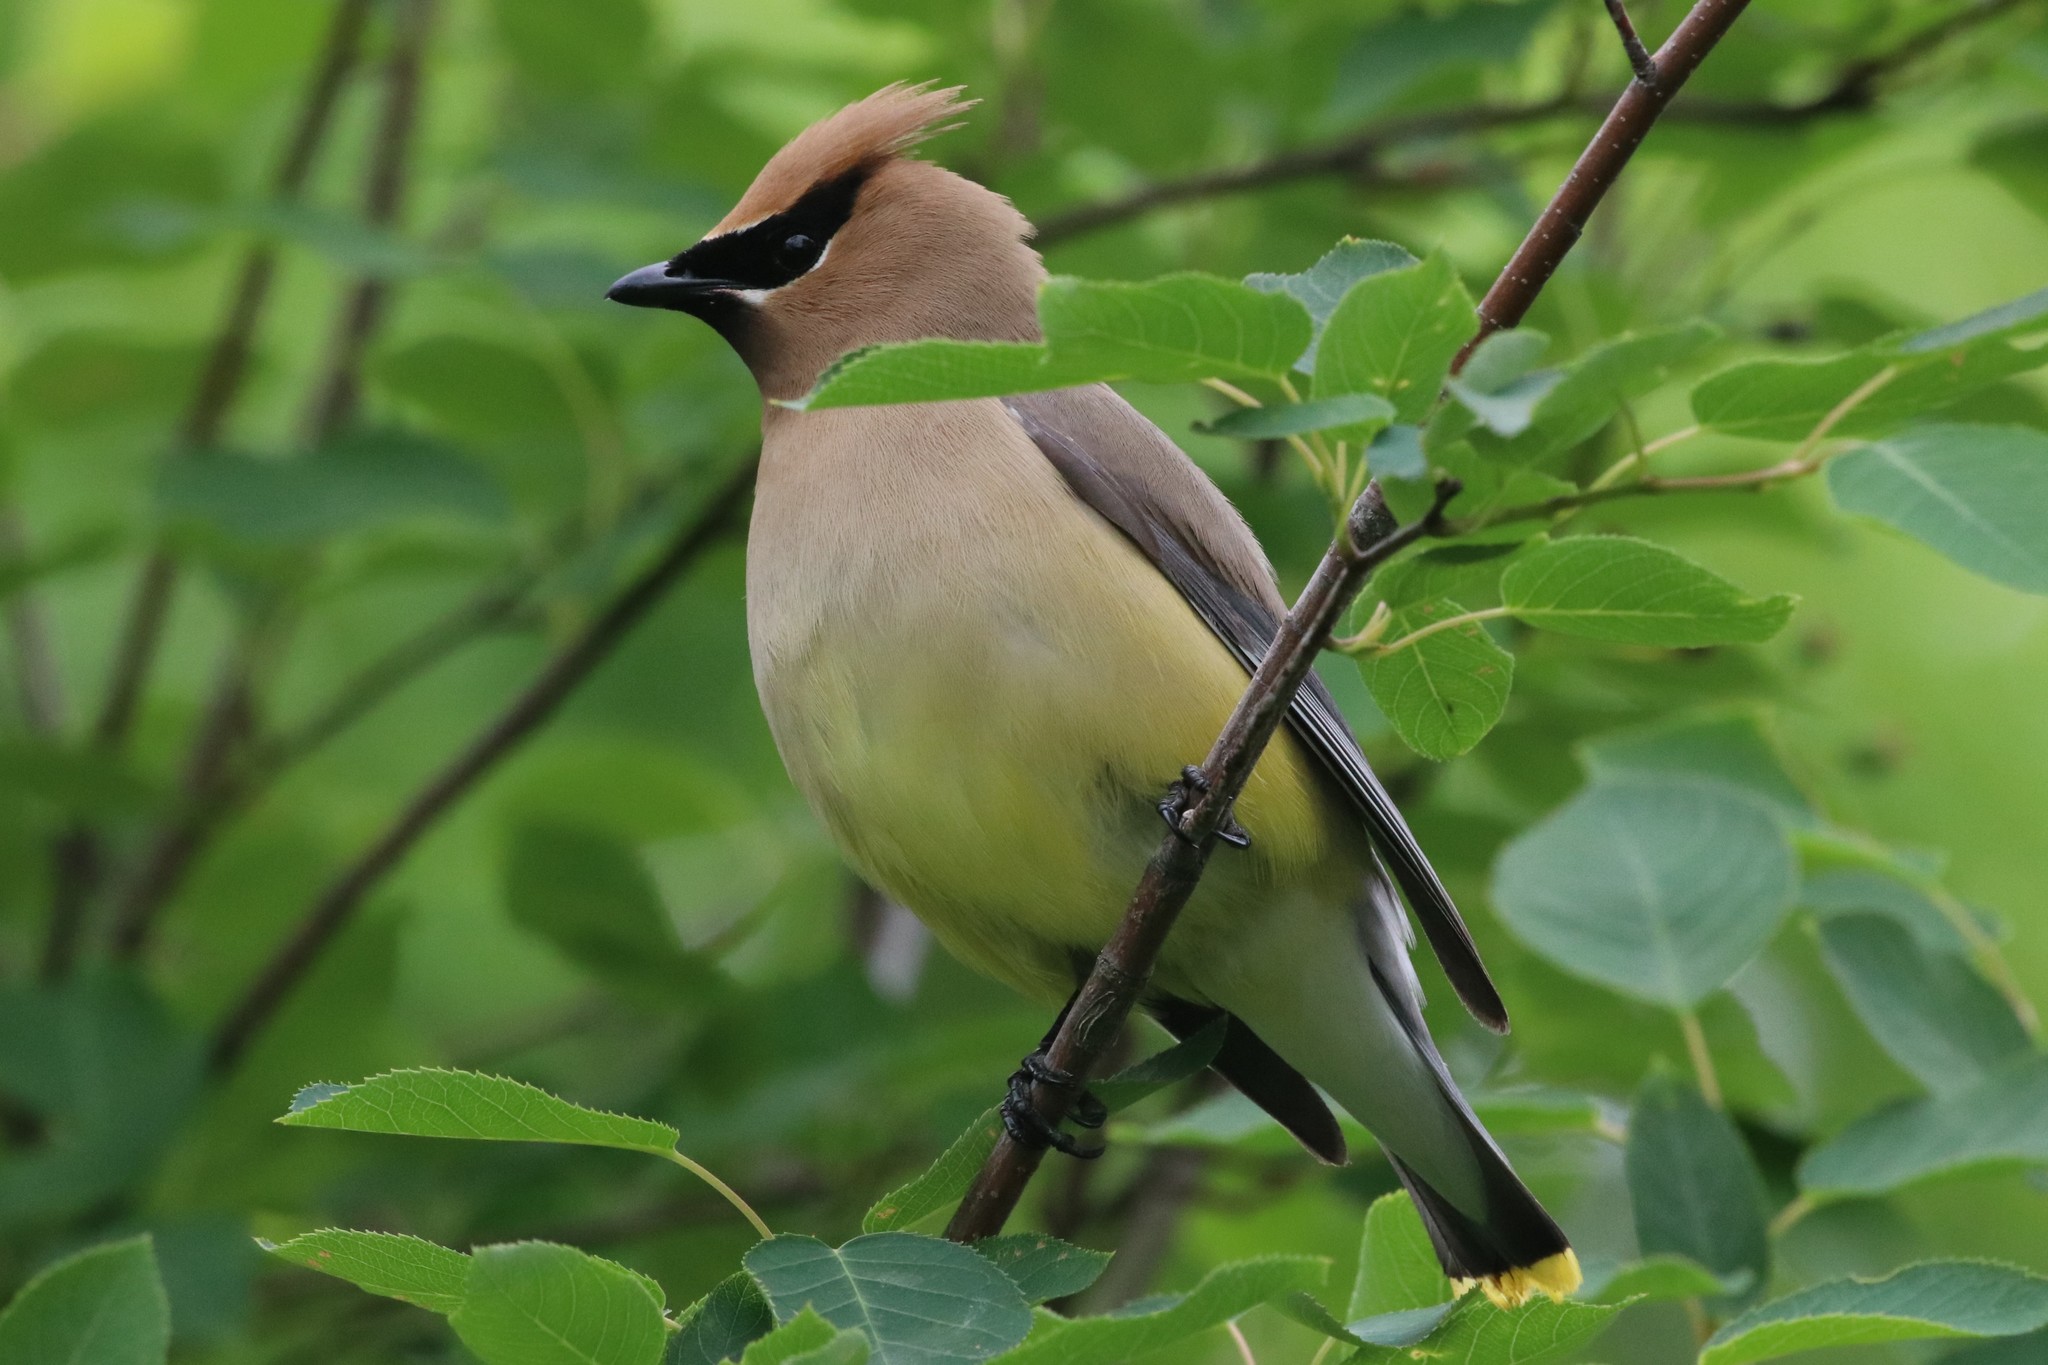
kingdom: Animalia
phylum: Chordata
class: Aves
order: Passeriformes
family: Bombycillidae
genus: Bombycilla
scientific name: Bombycilla cedrorum
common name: Cedar waxwing
